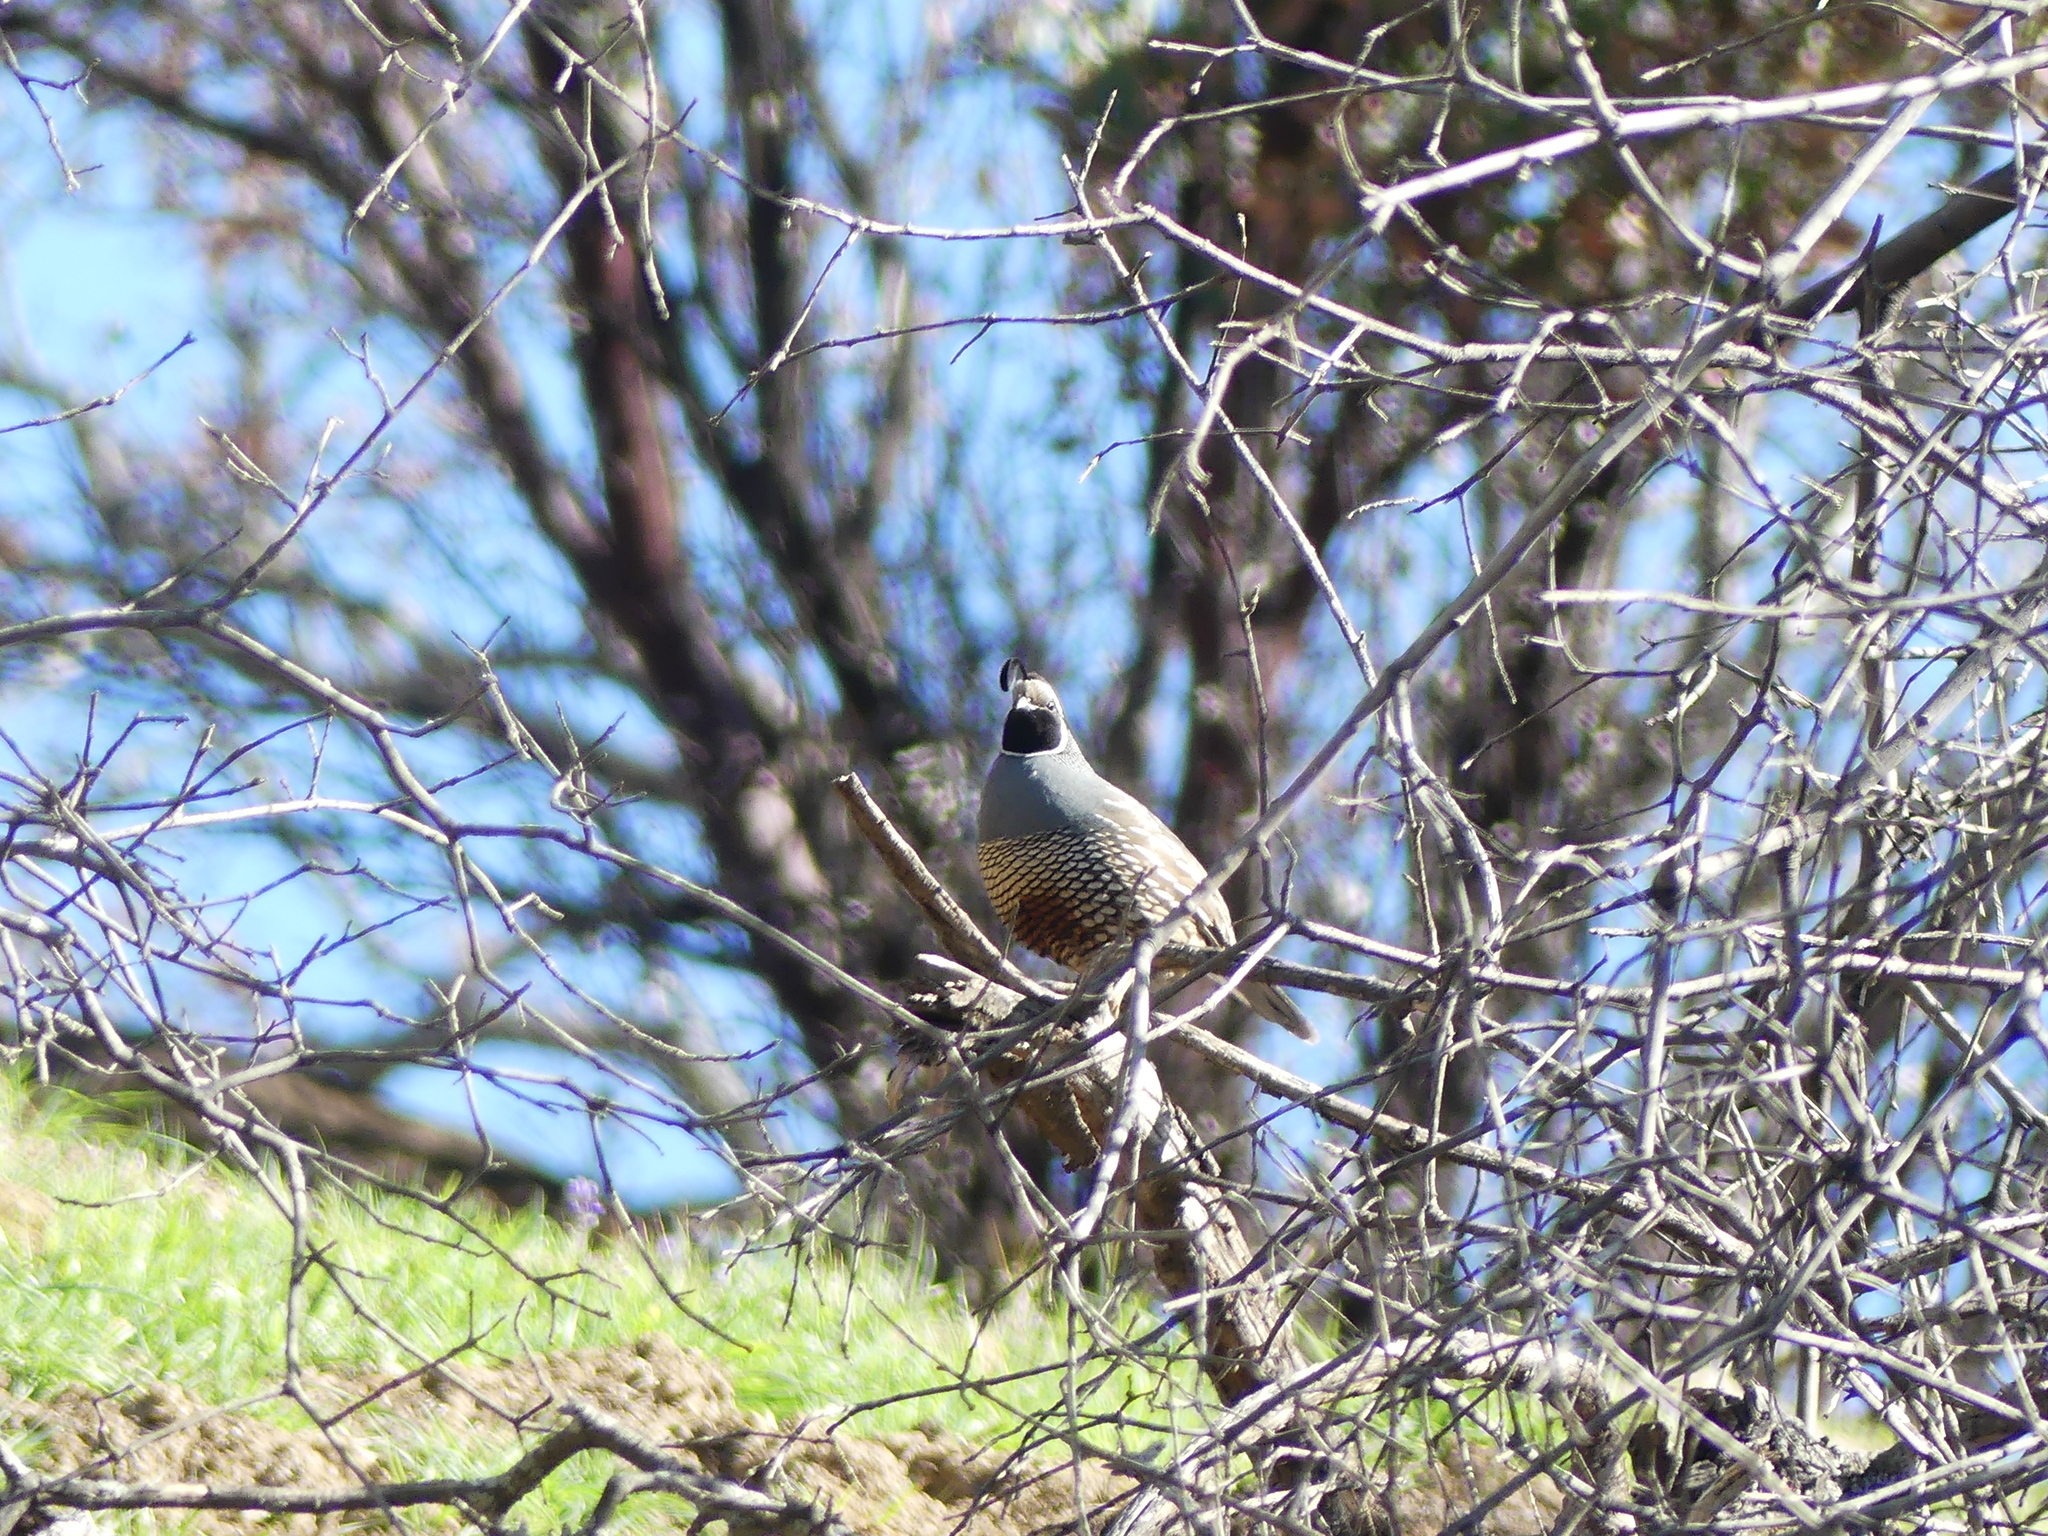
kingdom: Animalia
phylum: Chordata
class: Aves
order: Galliformes
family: Odontophoridae
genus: Callipepla
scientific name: Callipepla californica
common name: California quail
